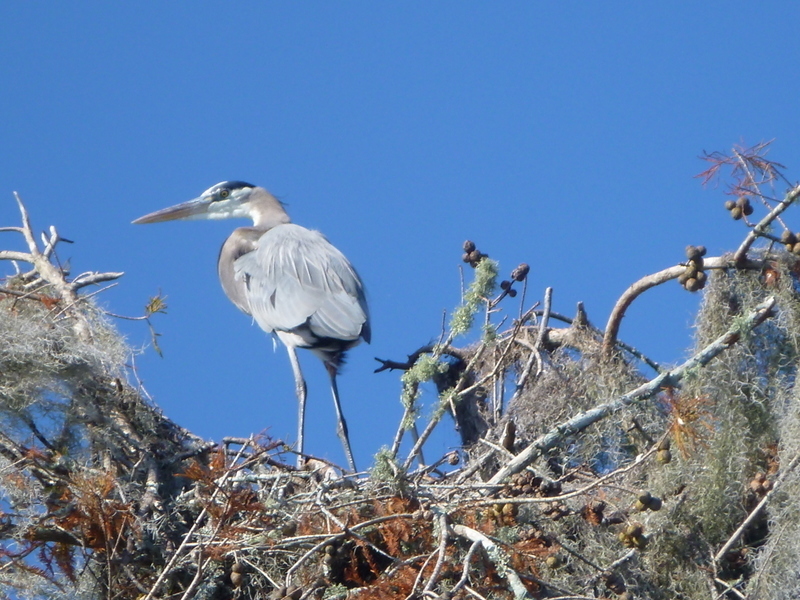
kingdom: Animalia
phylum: Chordata
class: Aves
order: Pelecaniformes
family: Ardeidae
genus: Ardea
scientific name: Ardea herodias
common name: Great blue heron
